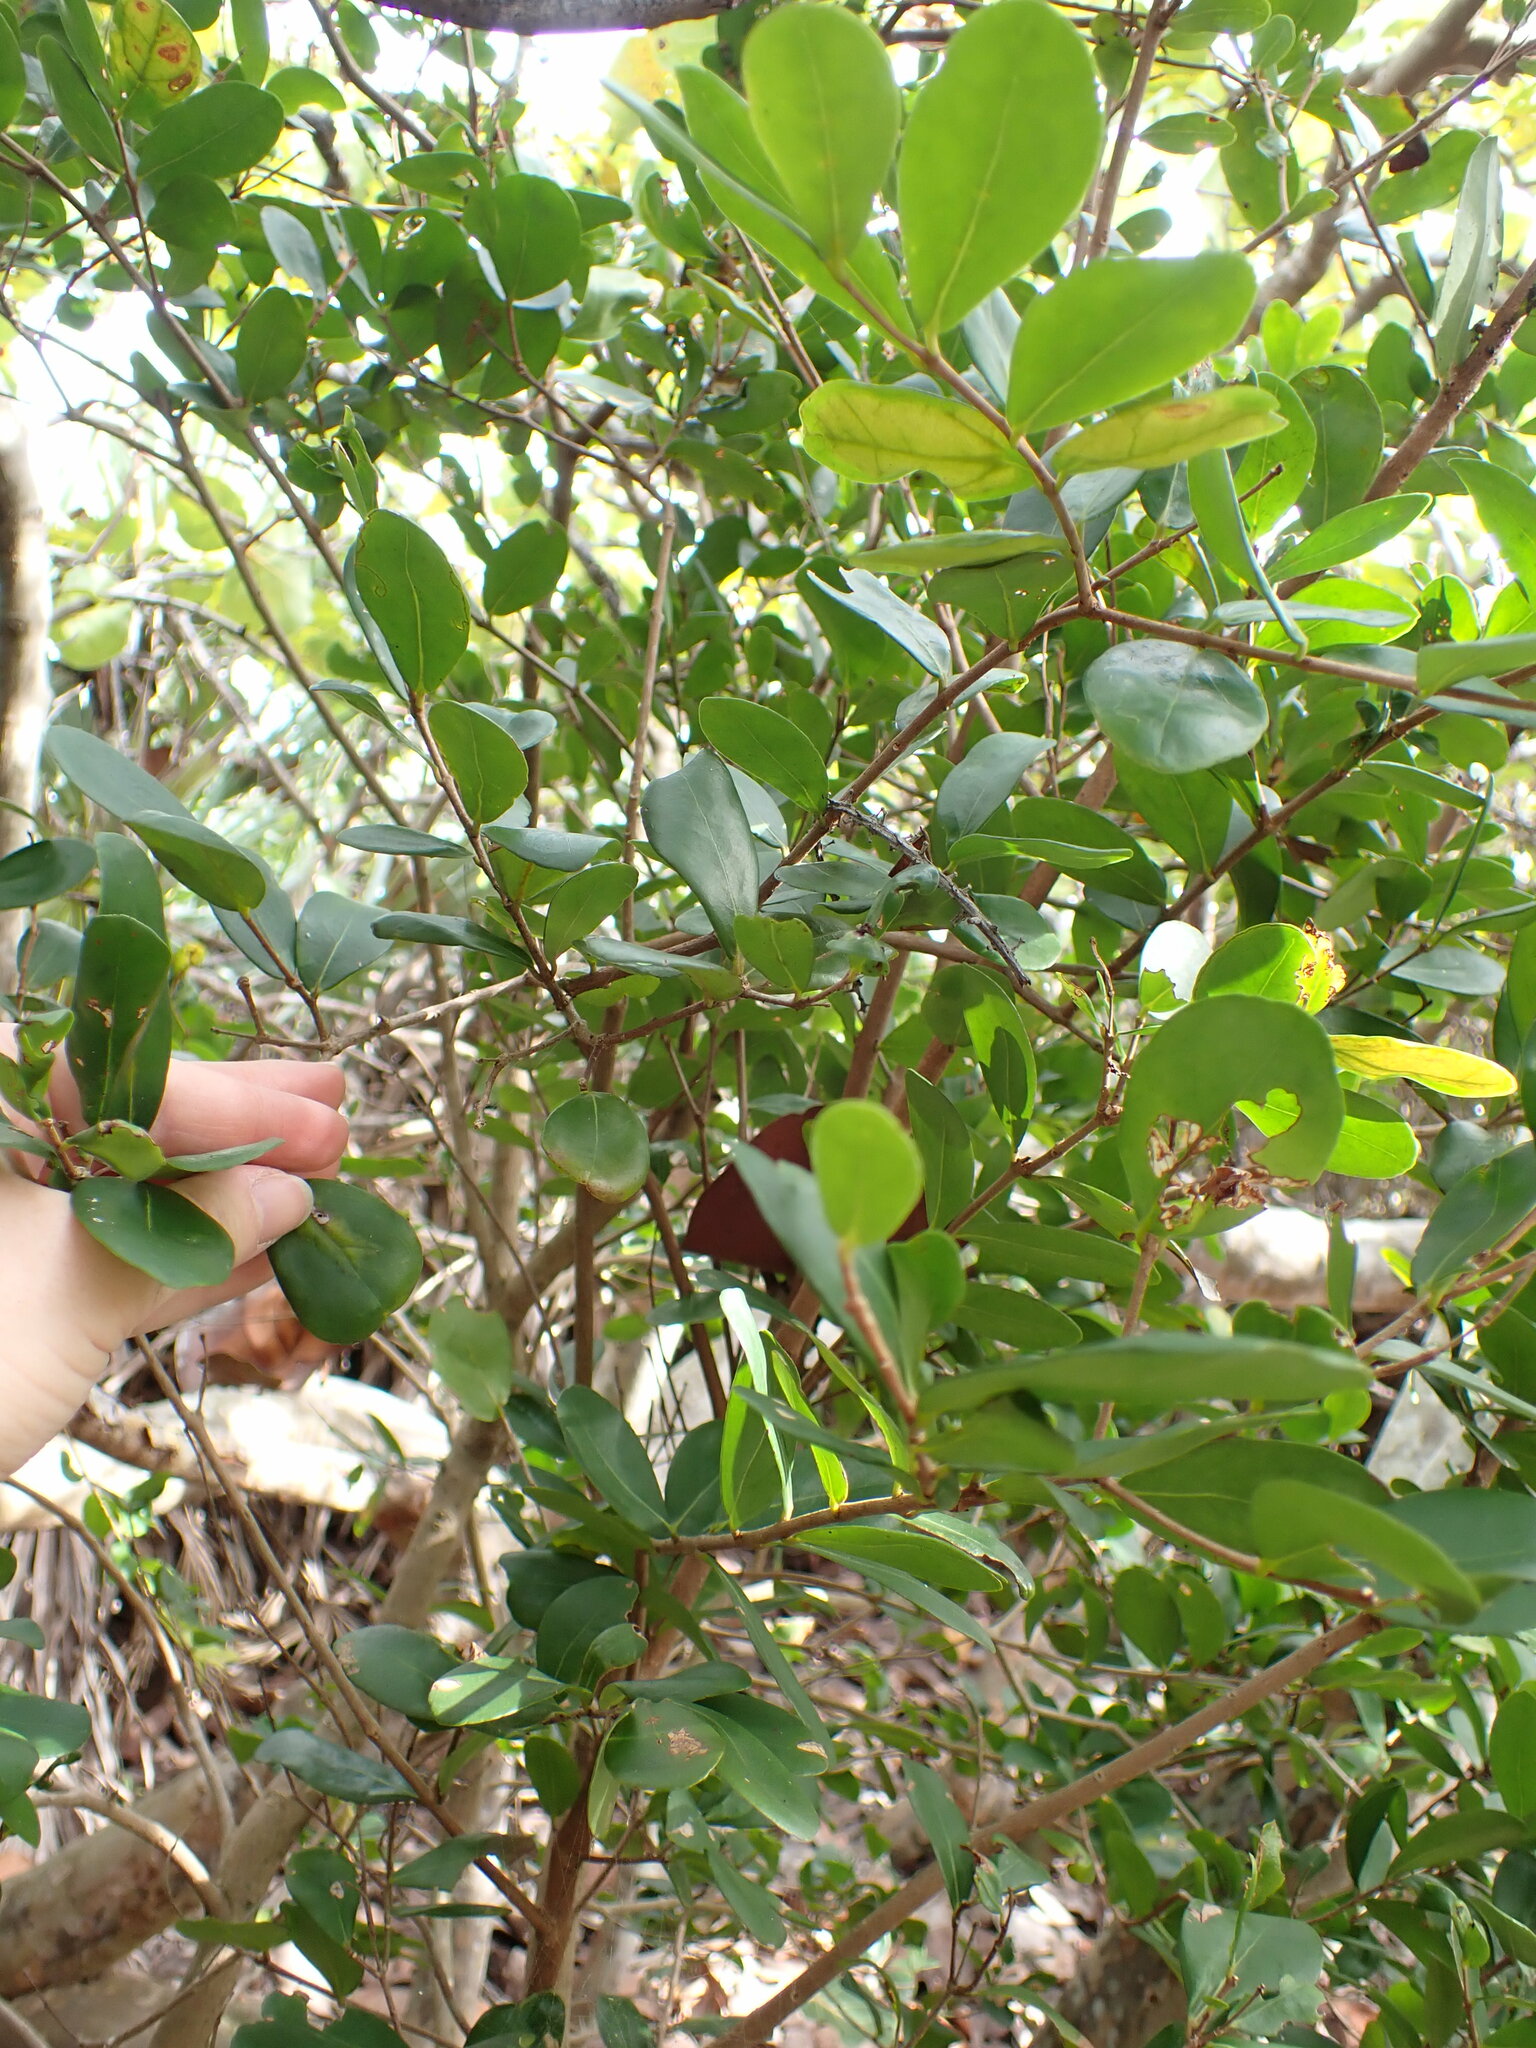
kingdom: Plantae
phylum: Tracheophyta
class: Magnoliopsida
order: Myrtales
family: Myrtaceae
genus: Eugenia
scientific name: Eugenia foetida
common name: White wattling
